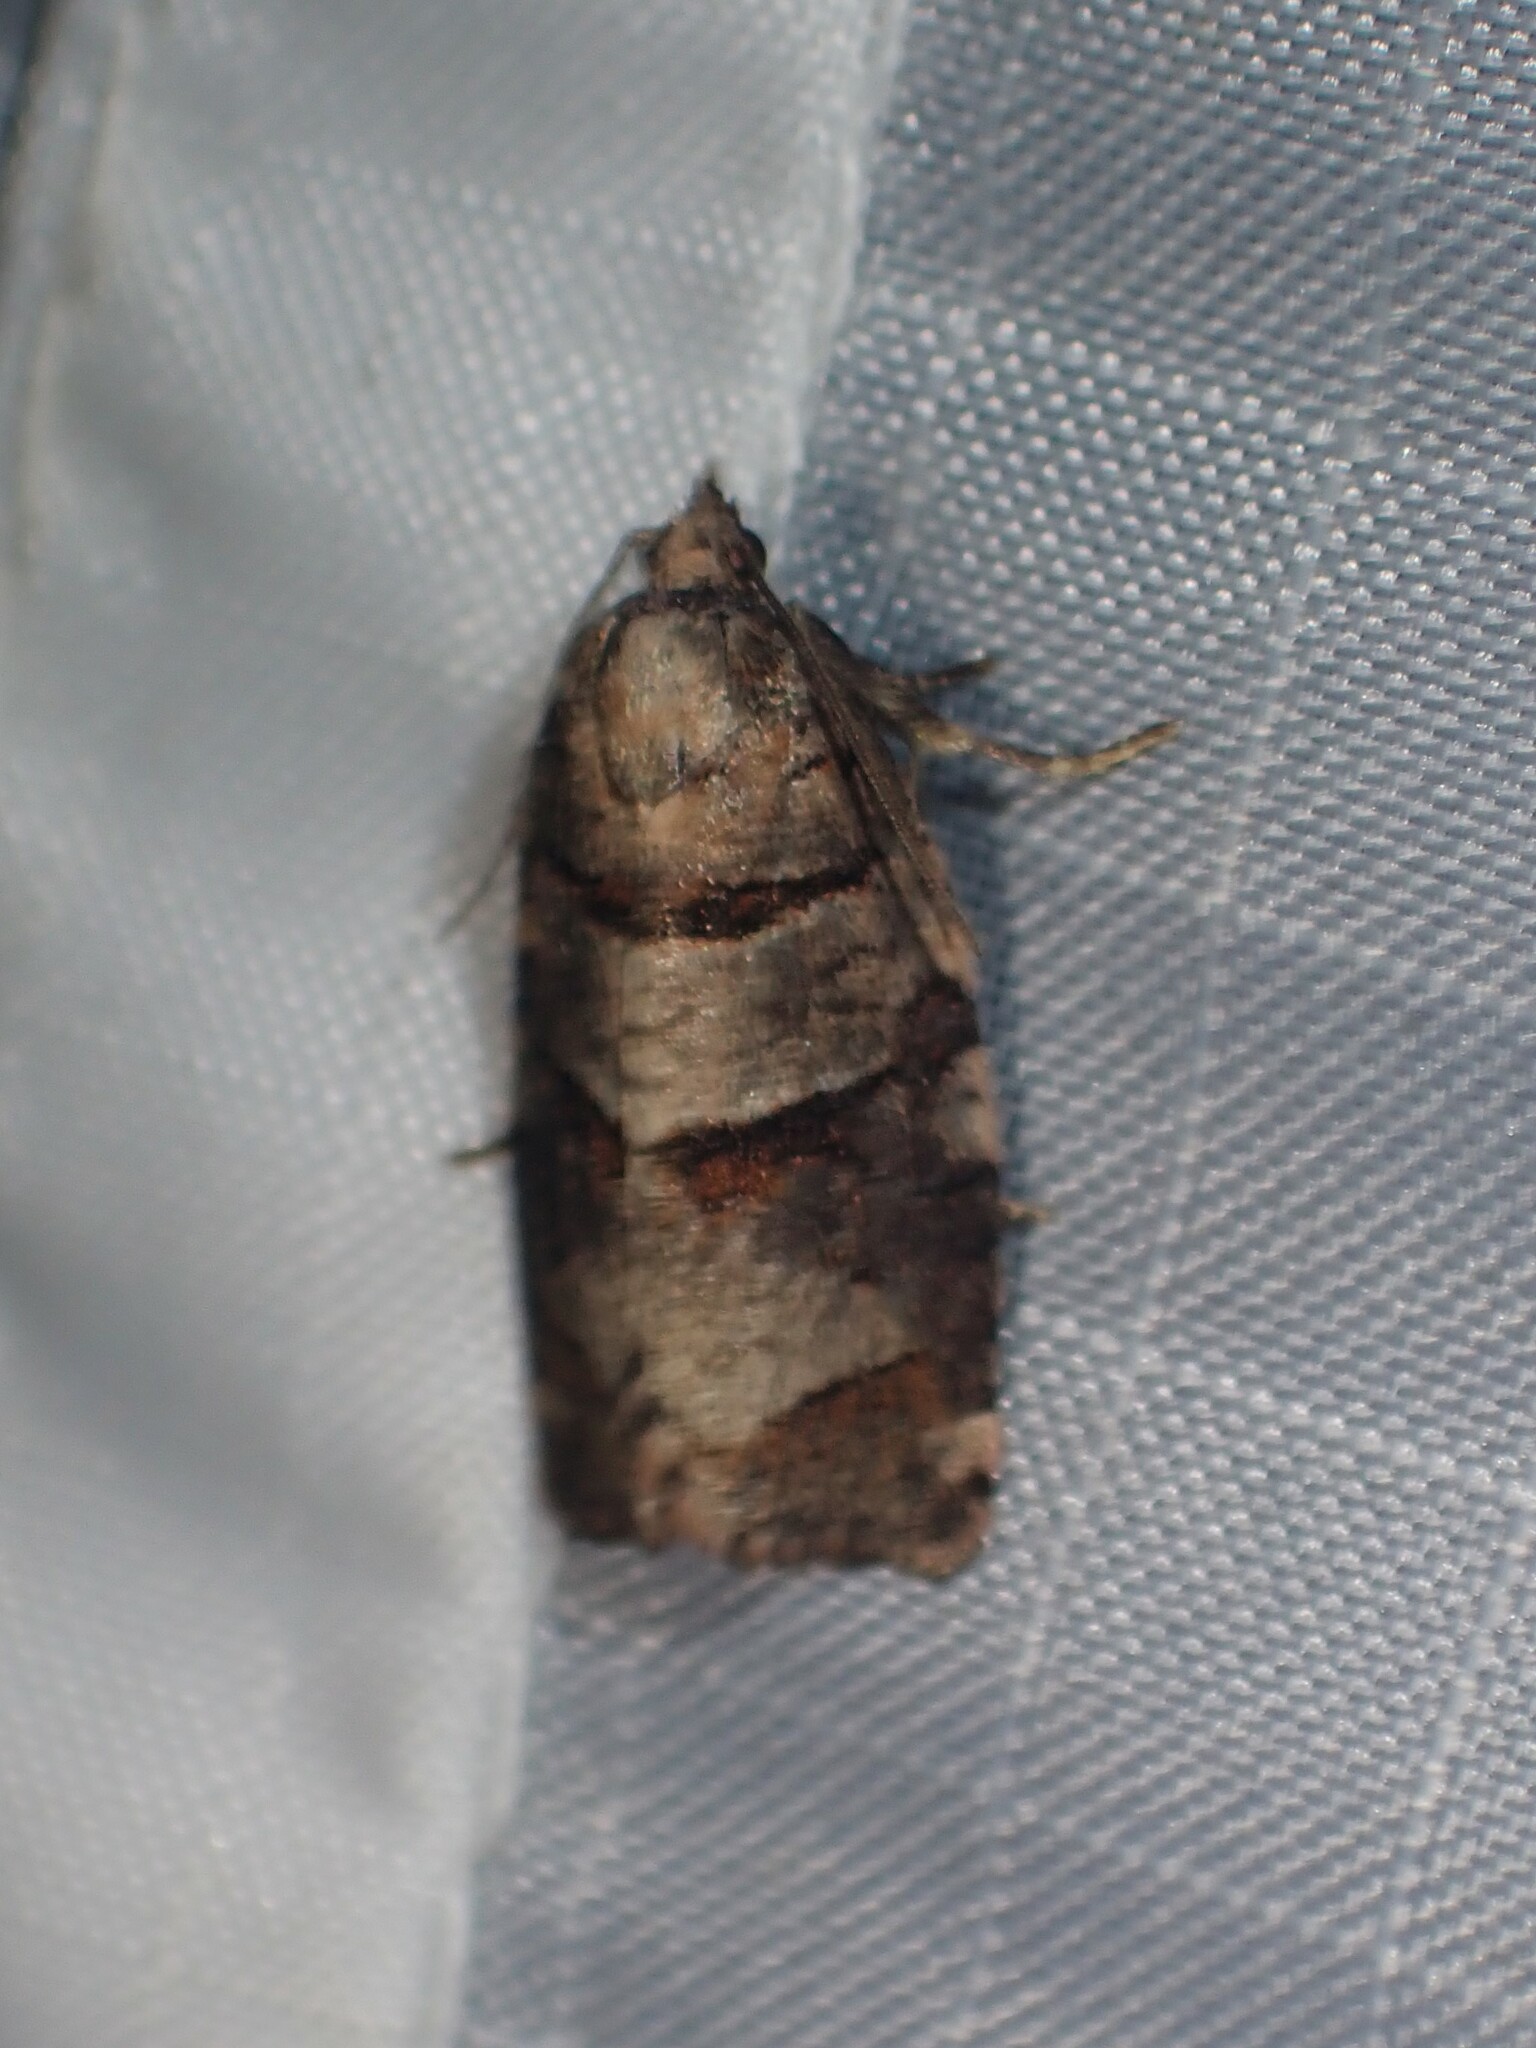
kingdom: Animalia
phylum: Arthropoda
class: Insecta
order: Lepidoptera
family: Tortricidae
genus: Archips
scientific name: Archips alberta
